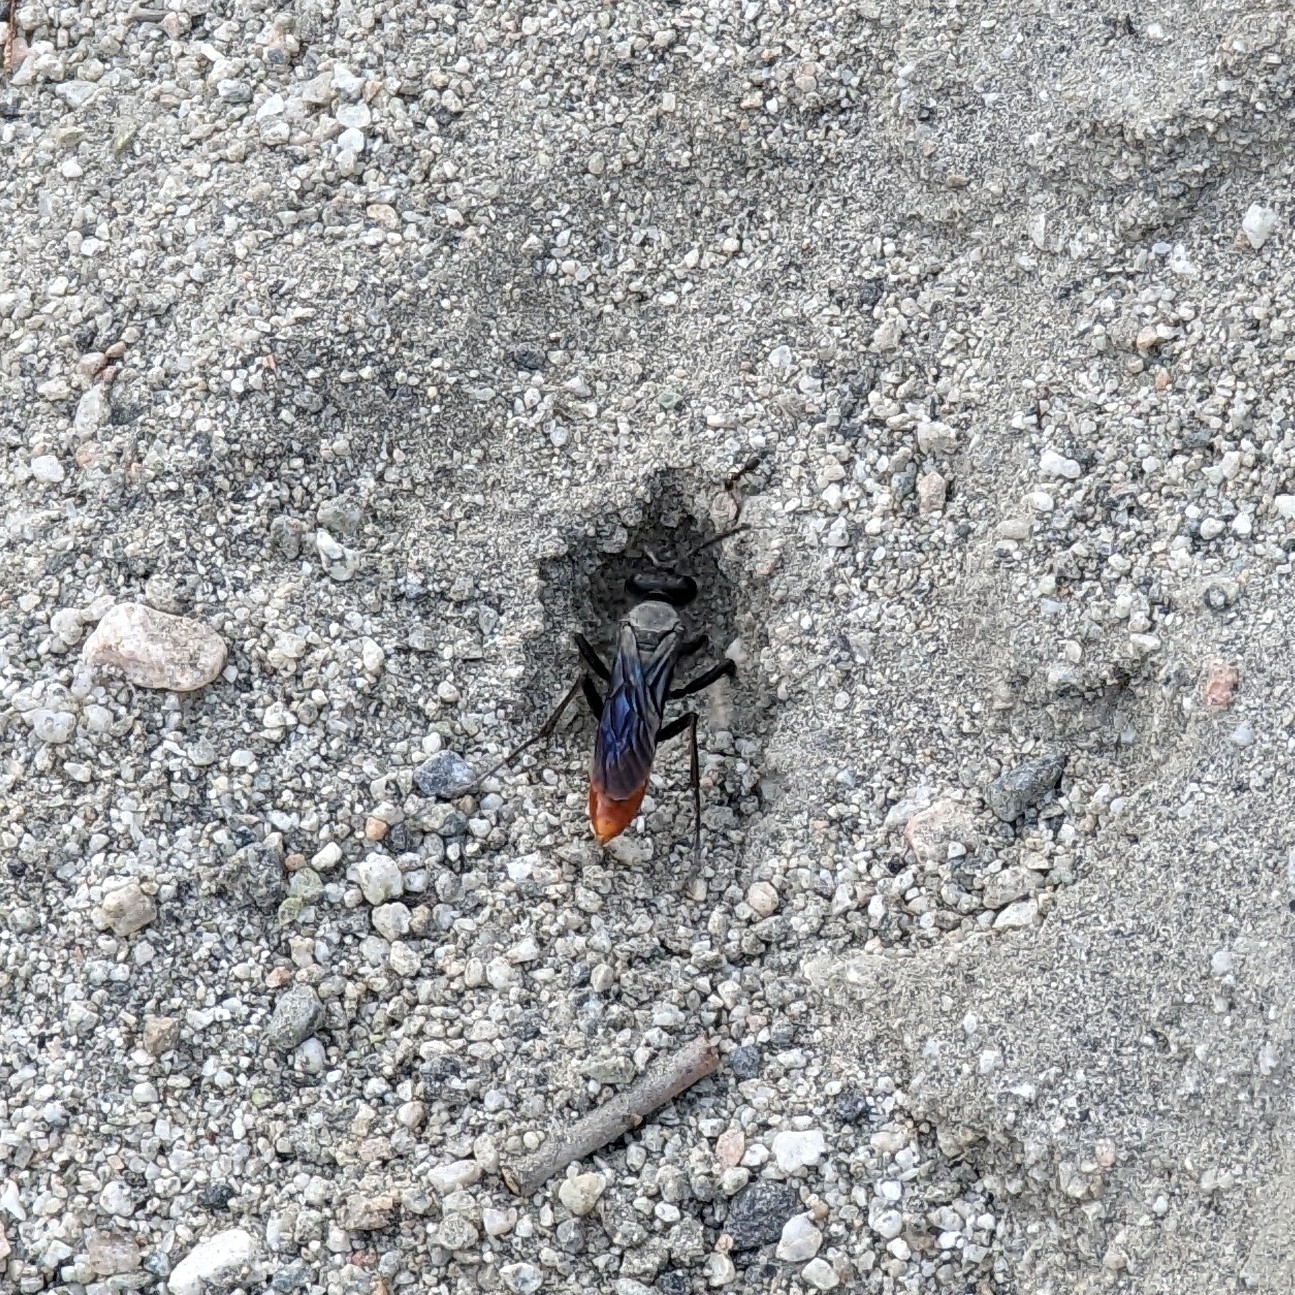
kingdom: Animalia
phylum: Arthropoda
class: Insecta
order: Hymenoptera
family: Sphecidae
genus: Sphex
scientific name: Sphex lucae
